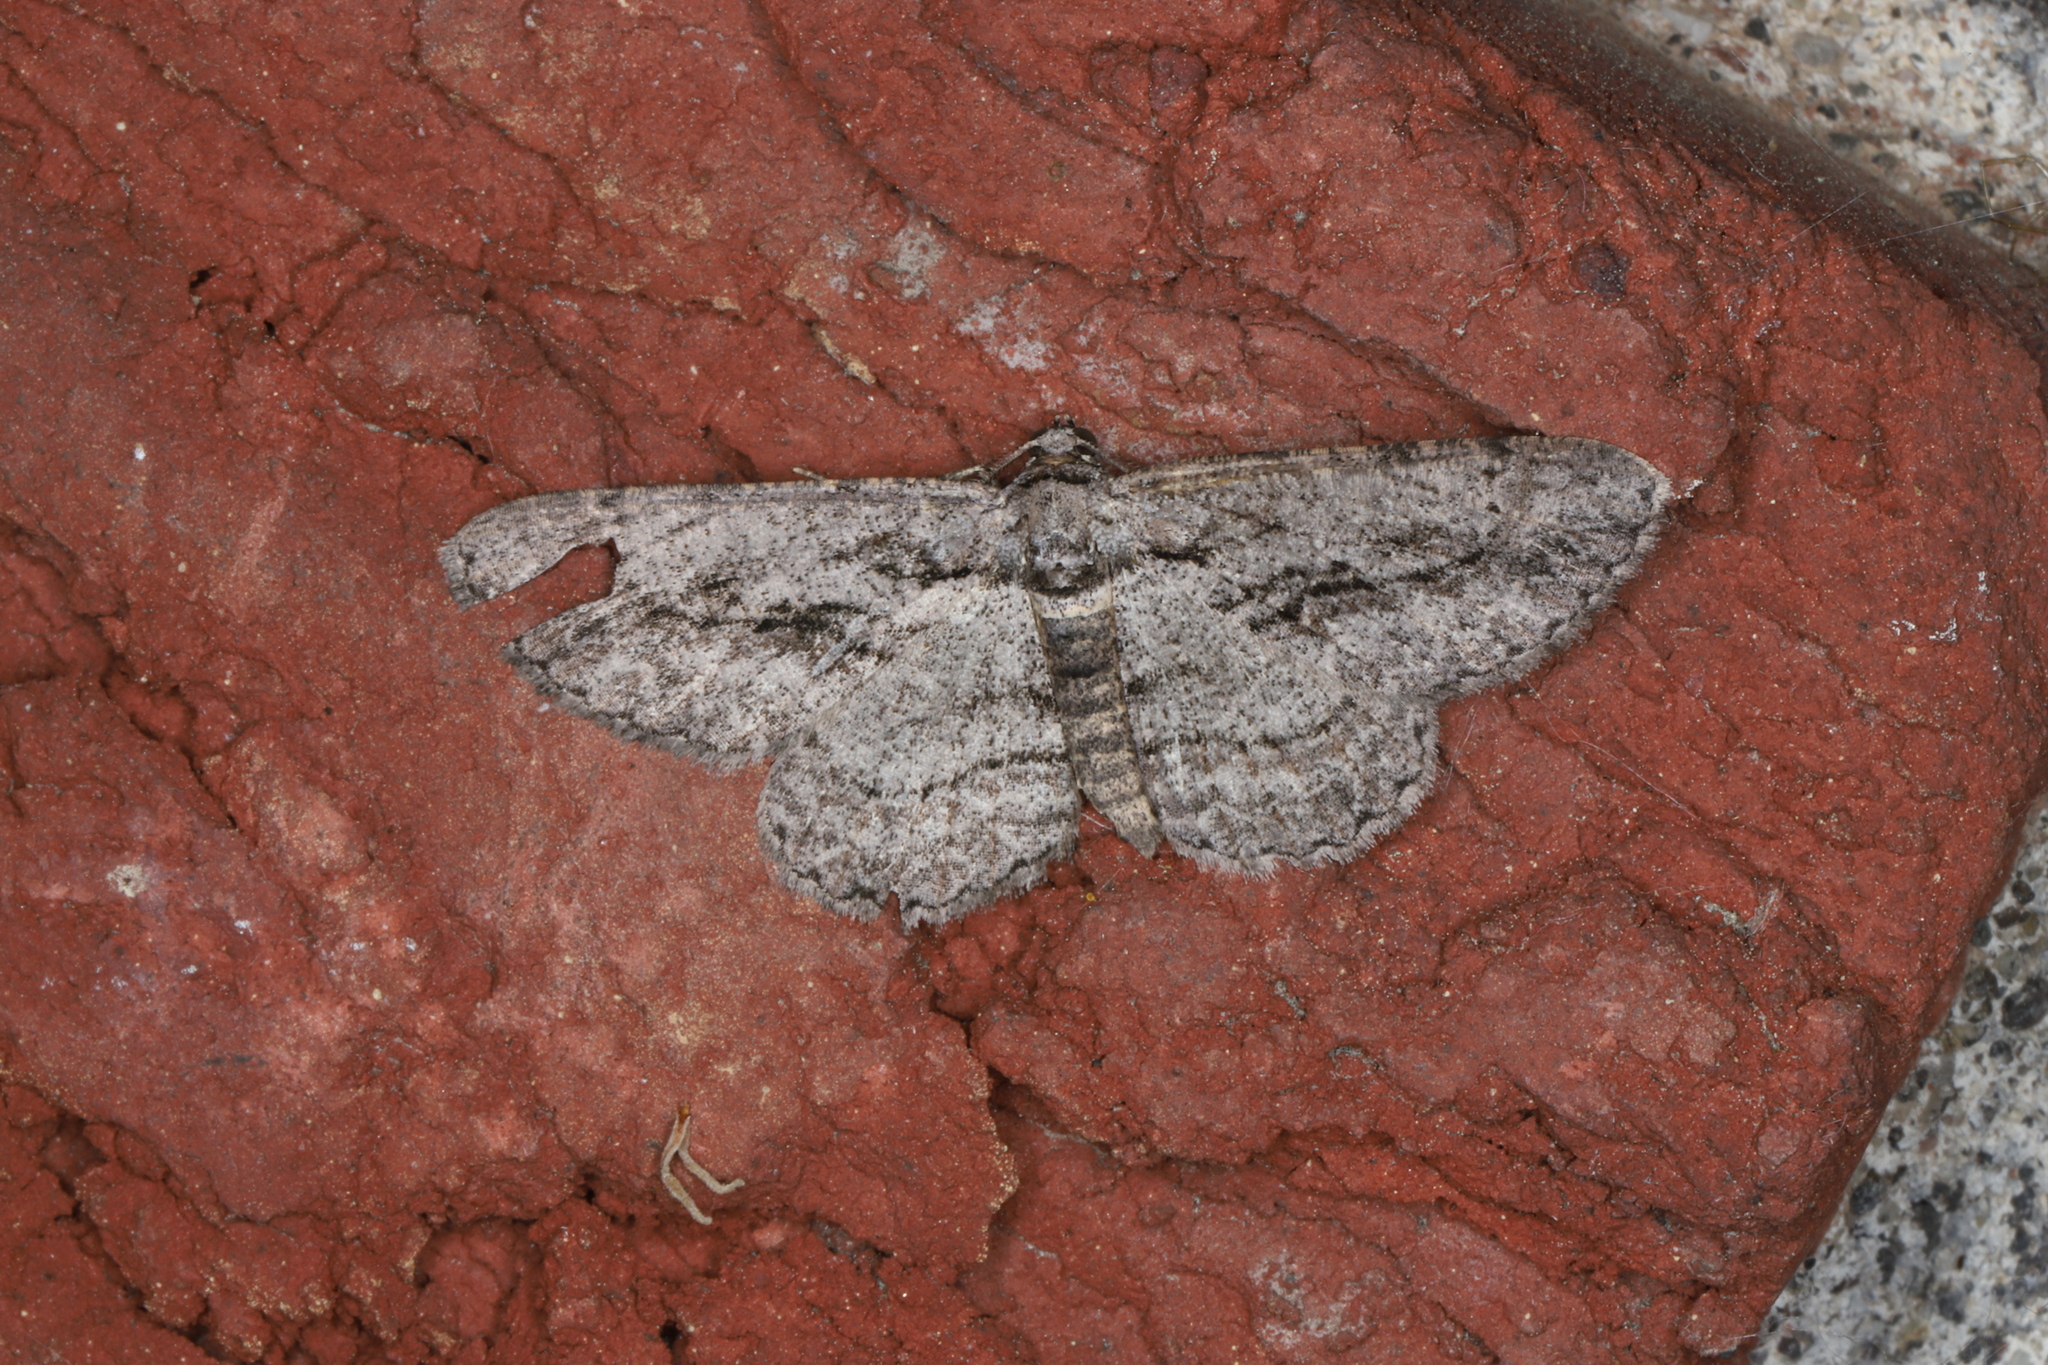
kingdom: Animalia
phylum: Arthropoda
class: Insecta
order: Lepidoptera
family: Geometridae
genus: Anavitrinella
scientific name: Anavitrinella pampinaria
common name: Common gray
